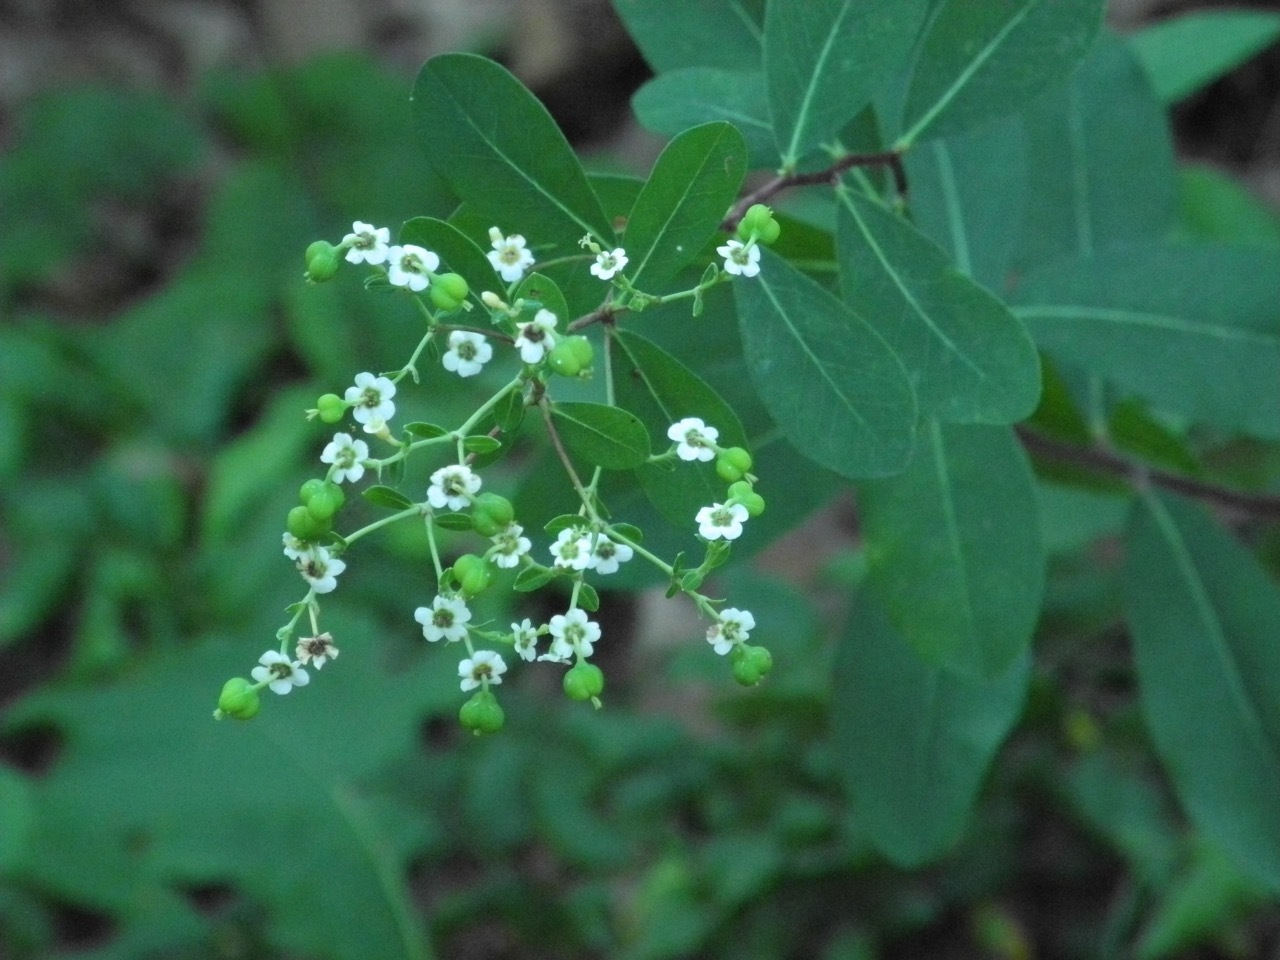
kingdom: Plantae
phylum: Tracheophyta
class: Magnoliopsida
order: Malpighiales
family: Euphorbiaceae
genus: Euphorbia
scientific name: Euphorbia corollata
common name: Flowering spurge
